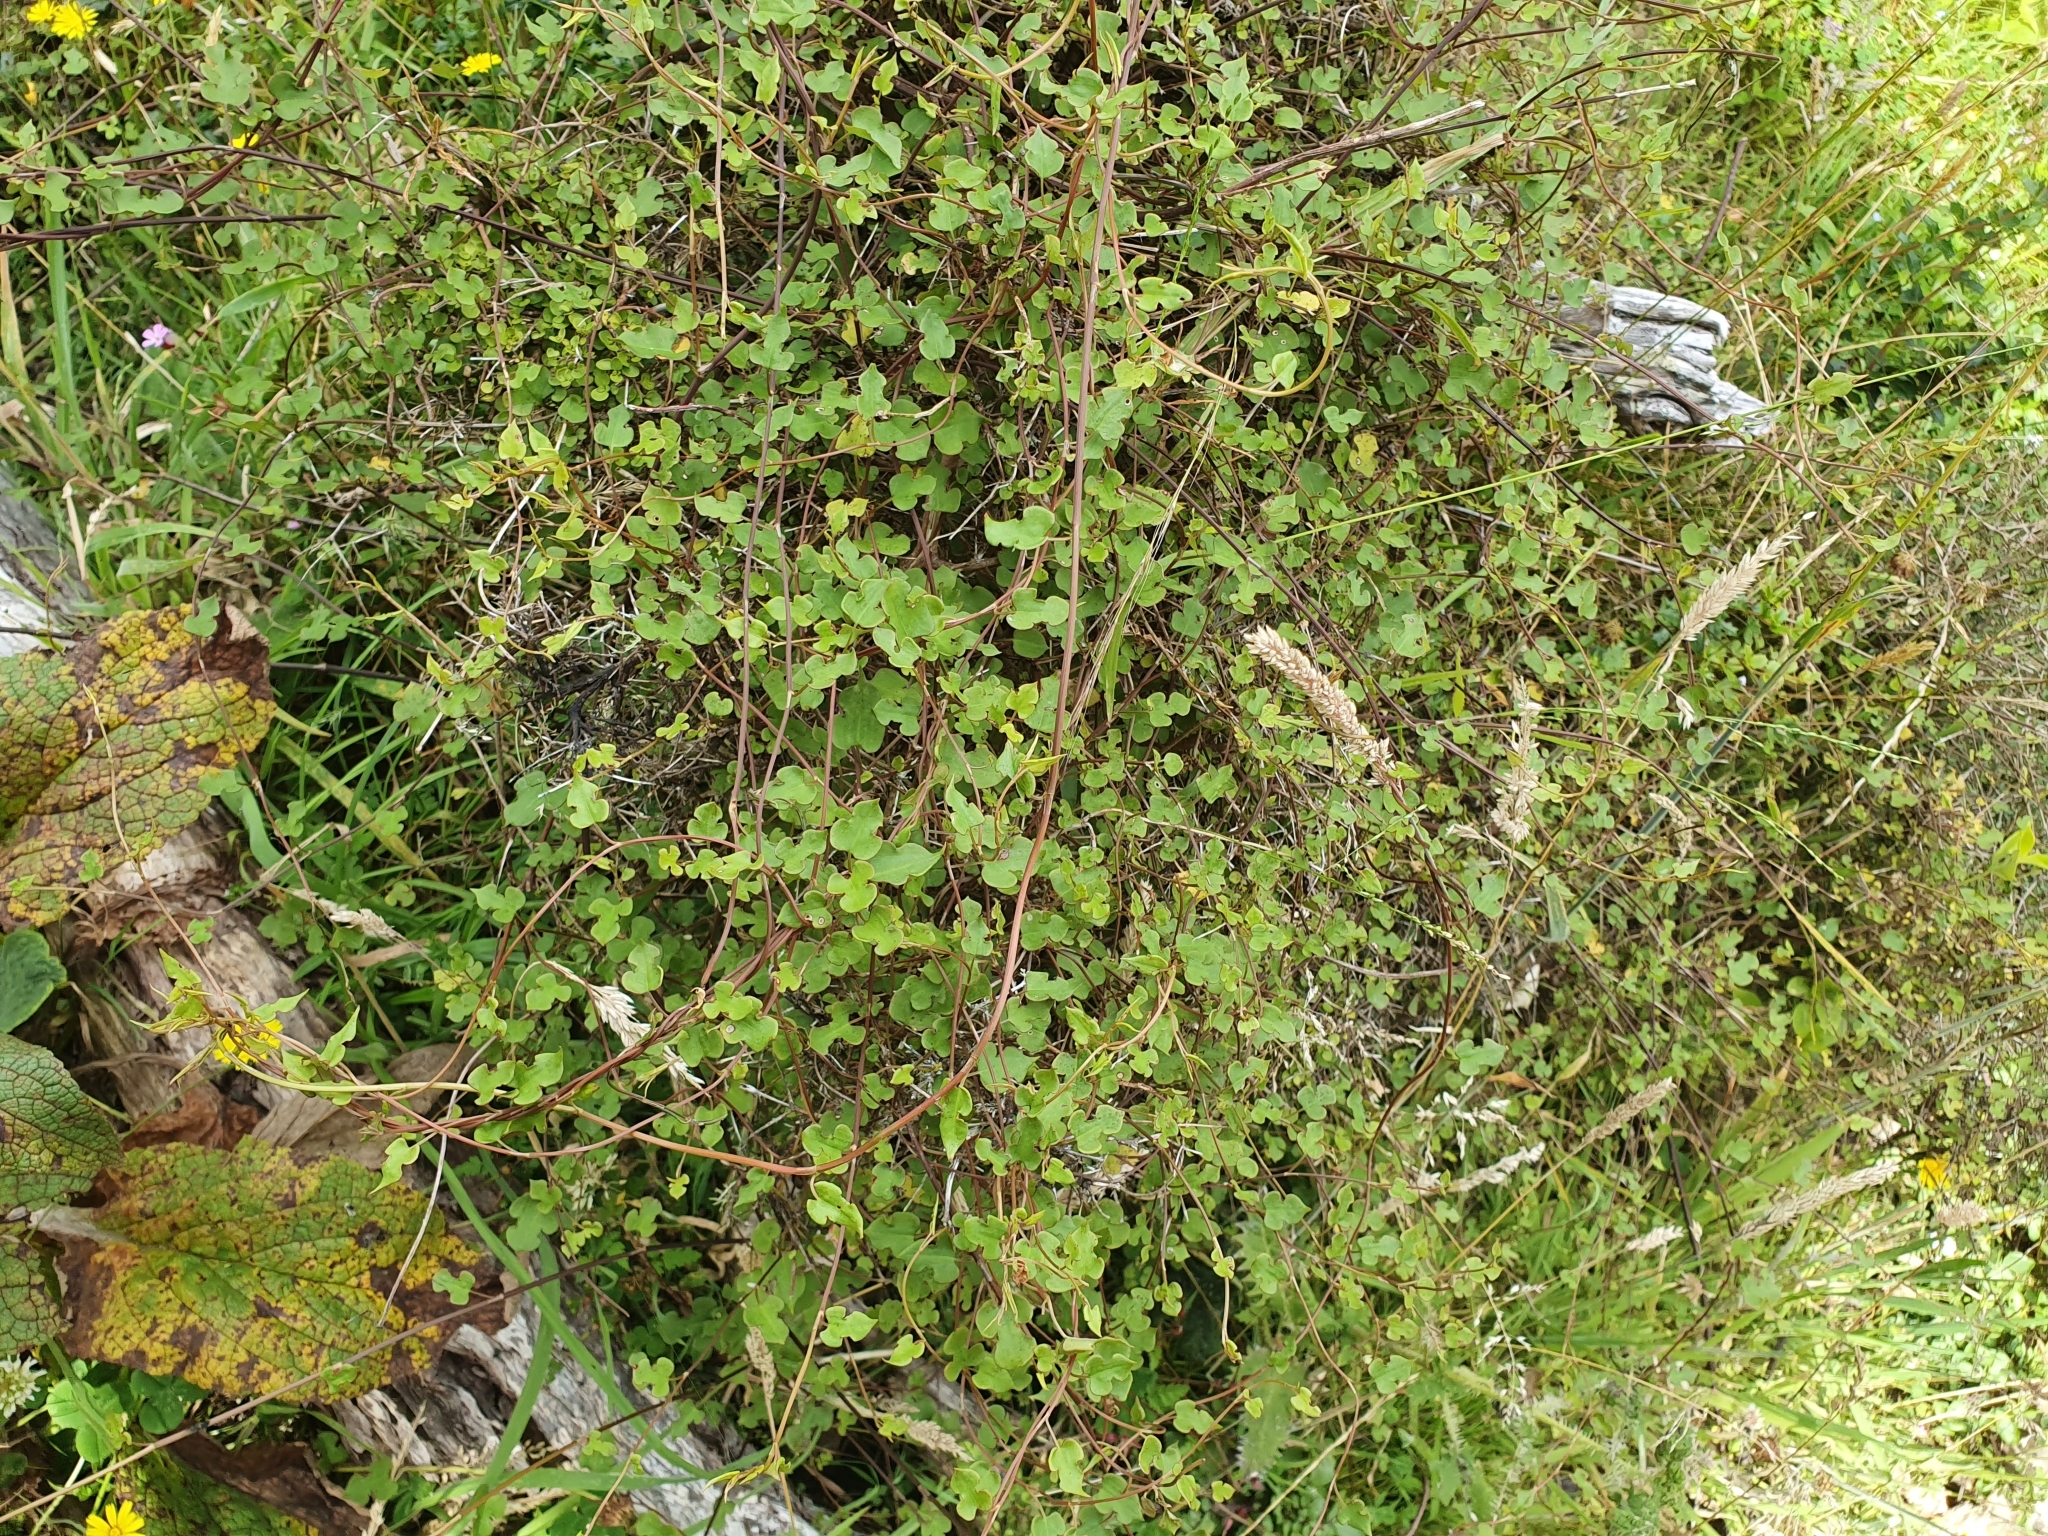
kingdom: Plantae
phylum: Tracheophyta
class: Magnoliopsida
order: Caryophyllales
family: Polygonaceae
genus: Muehlenbeckia
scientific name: Muehlenbeckia australis
